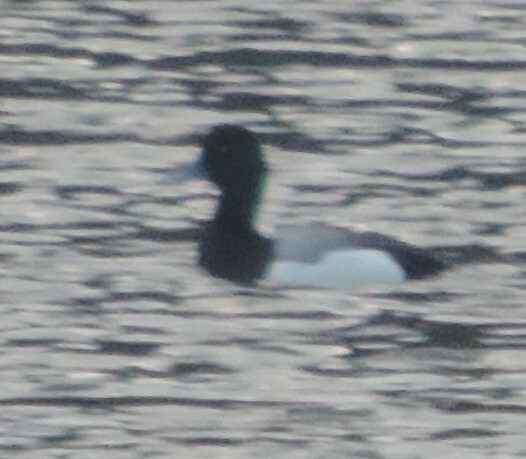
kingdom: Animalia
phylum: Chordata
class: Aves
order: Anseriformes
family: Anatidae
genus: Aythya
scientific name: Aythya affinis
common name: Lesser scaup
